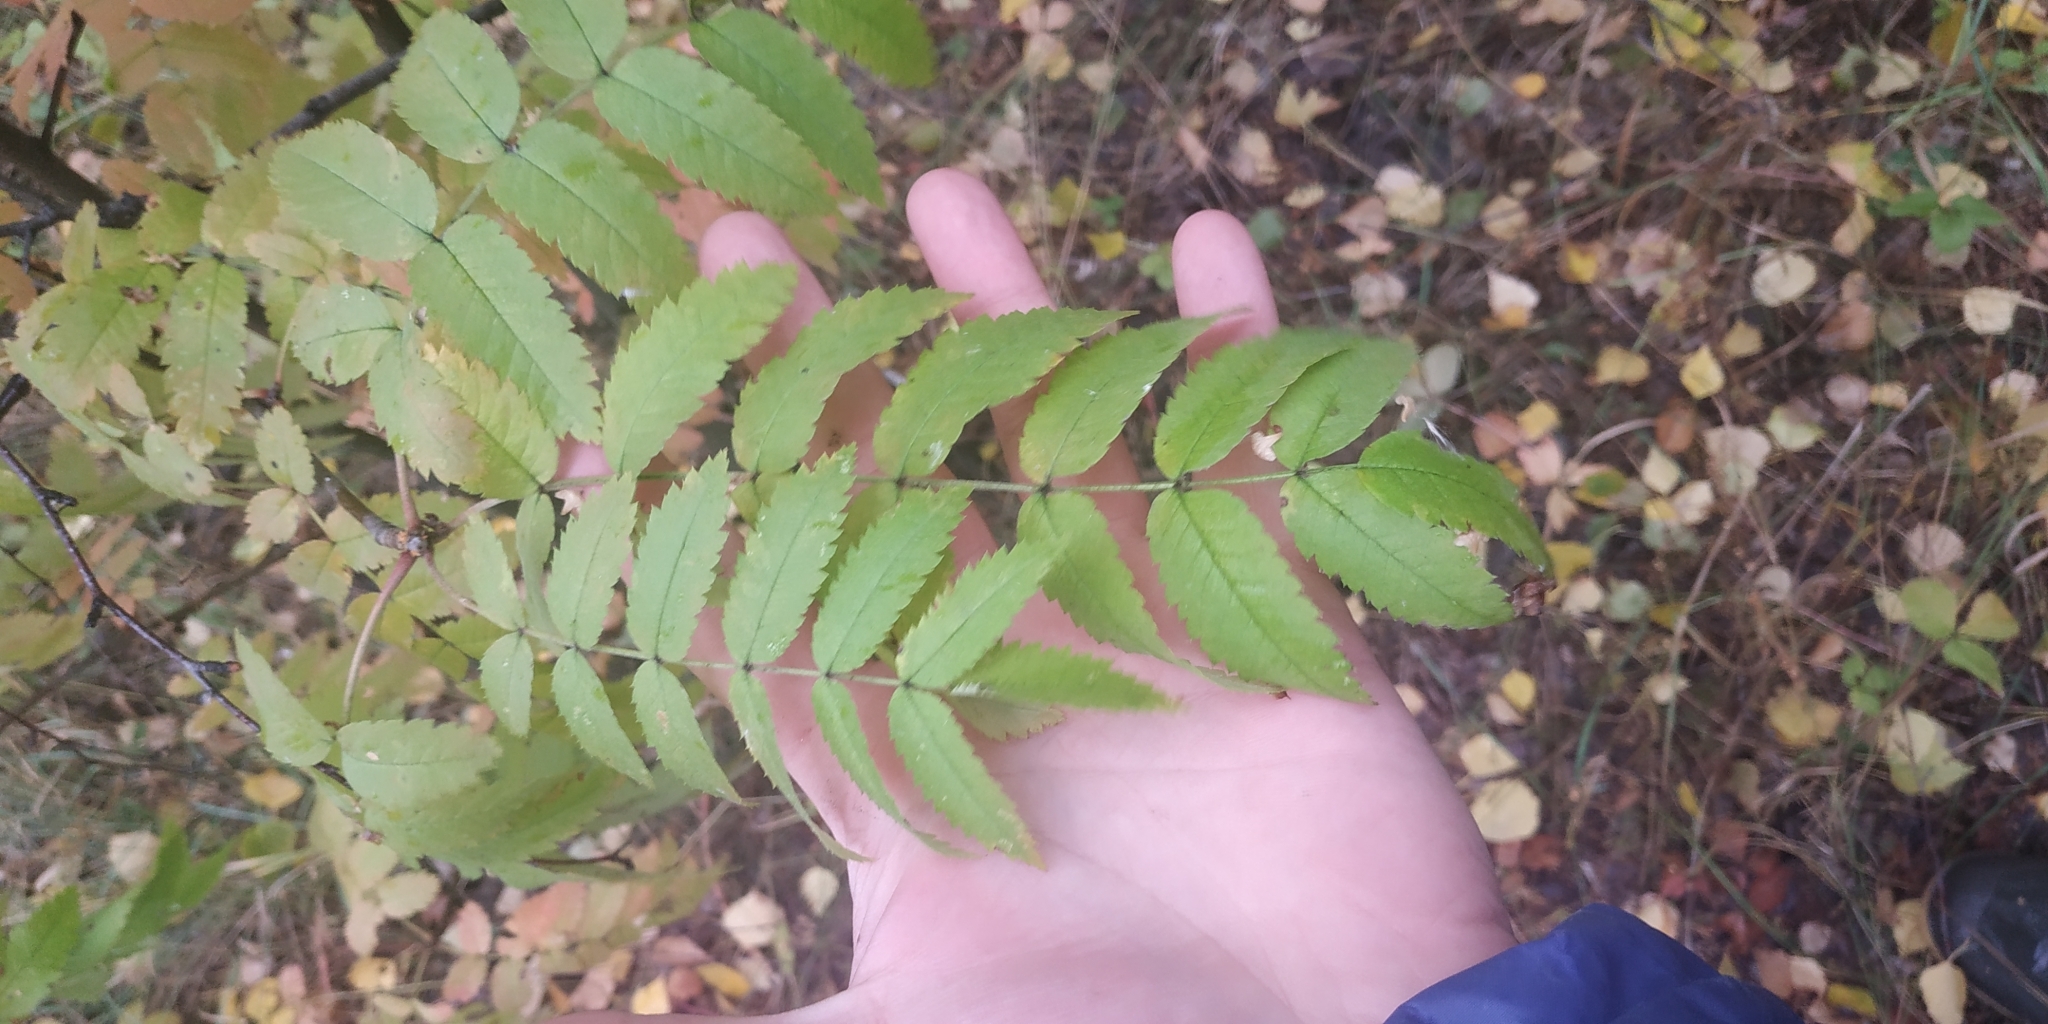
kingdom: Plantae
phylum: Tracheophyta
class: Magnoliopsida
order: Rosales
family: Rosaceae
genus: Sorbus
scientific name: Sorbus aucuparia
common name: Rowan
